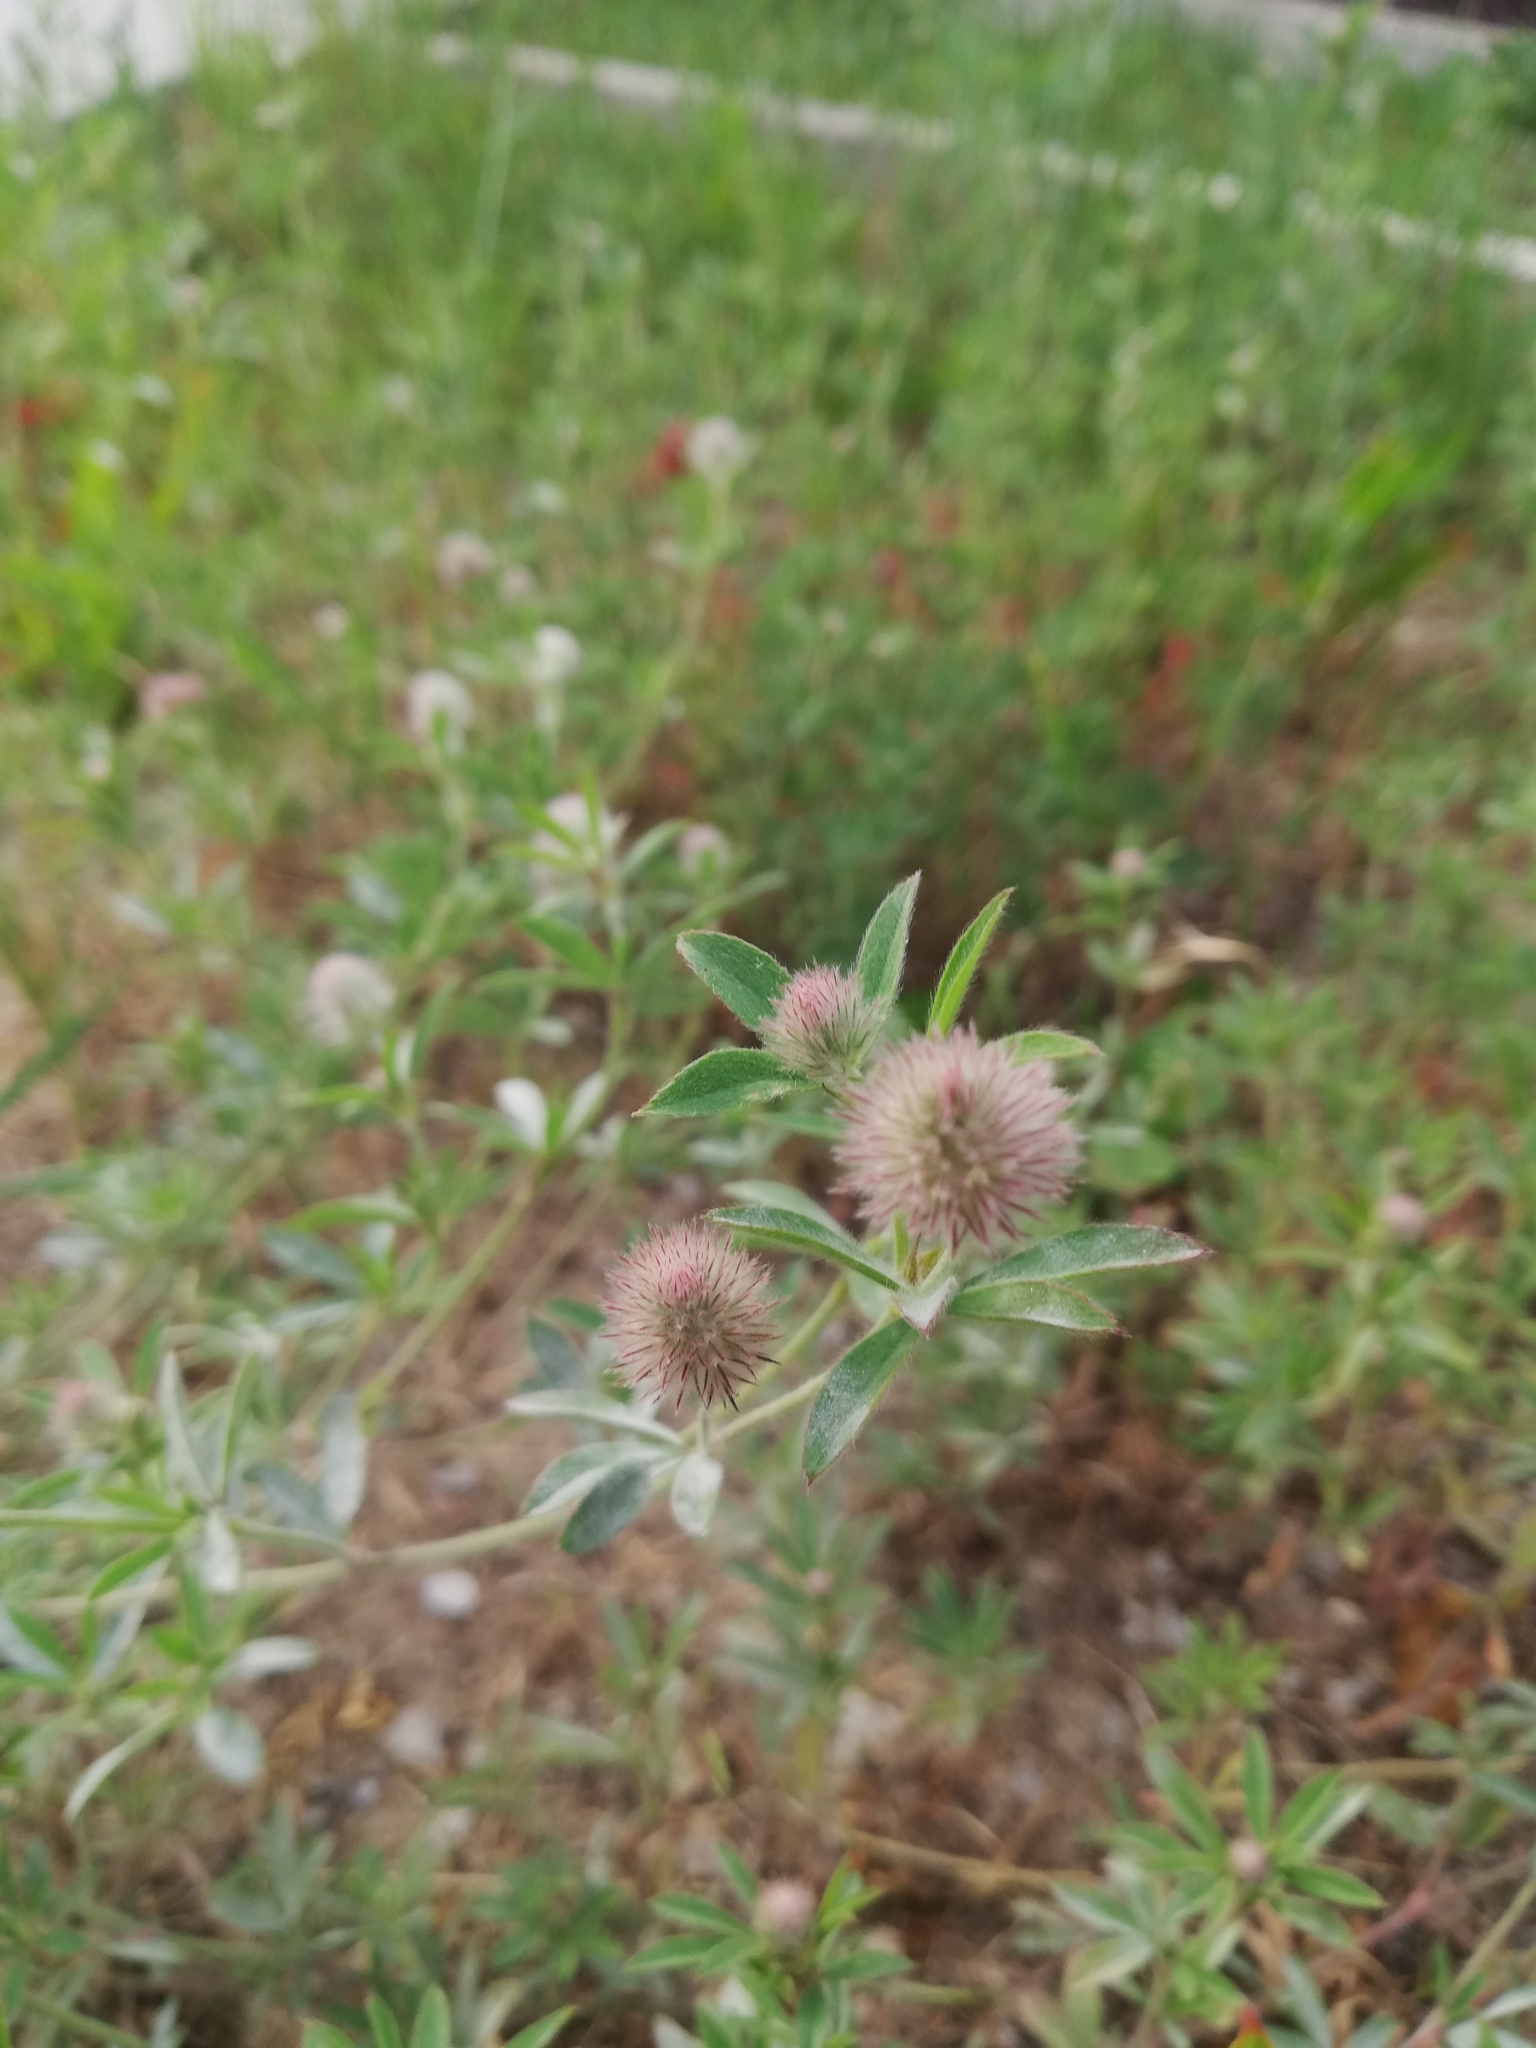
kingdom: Plantae
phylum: Tracheophyta
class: Magnoliopsida
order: Fabales
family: Fabaceae
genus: Trifolium
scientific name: Trifolium arvense
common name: Hare's-foot clover
